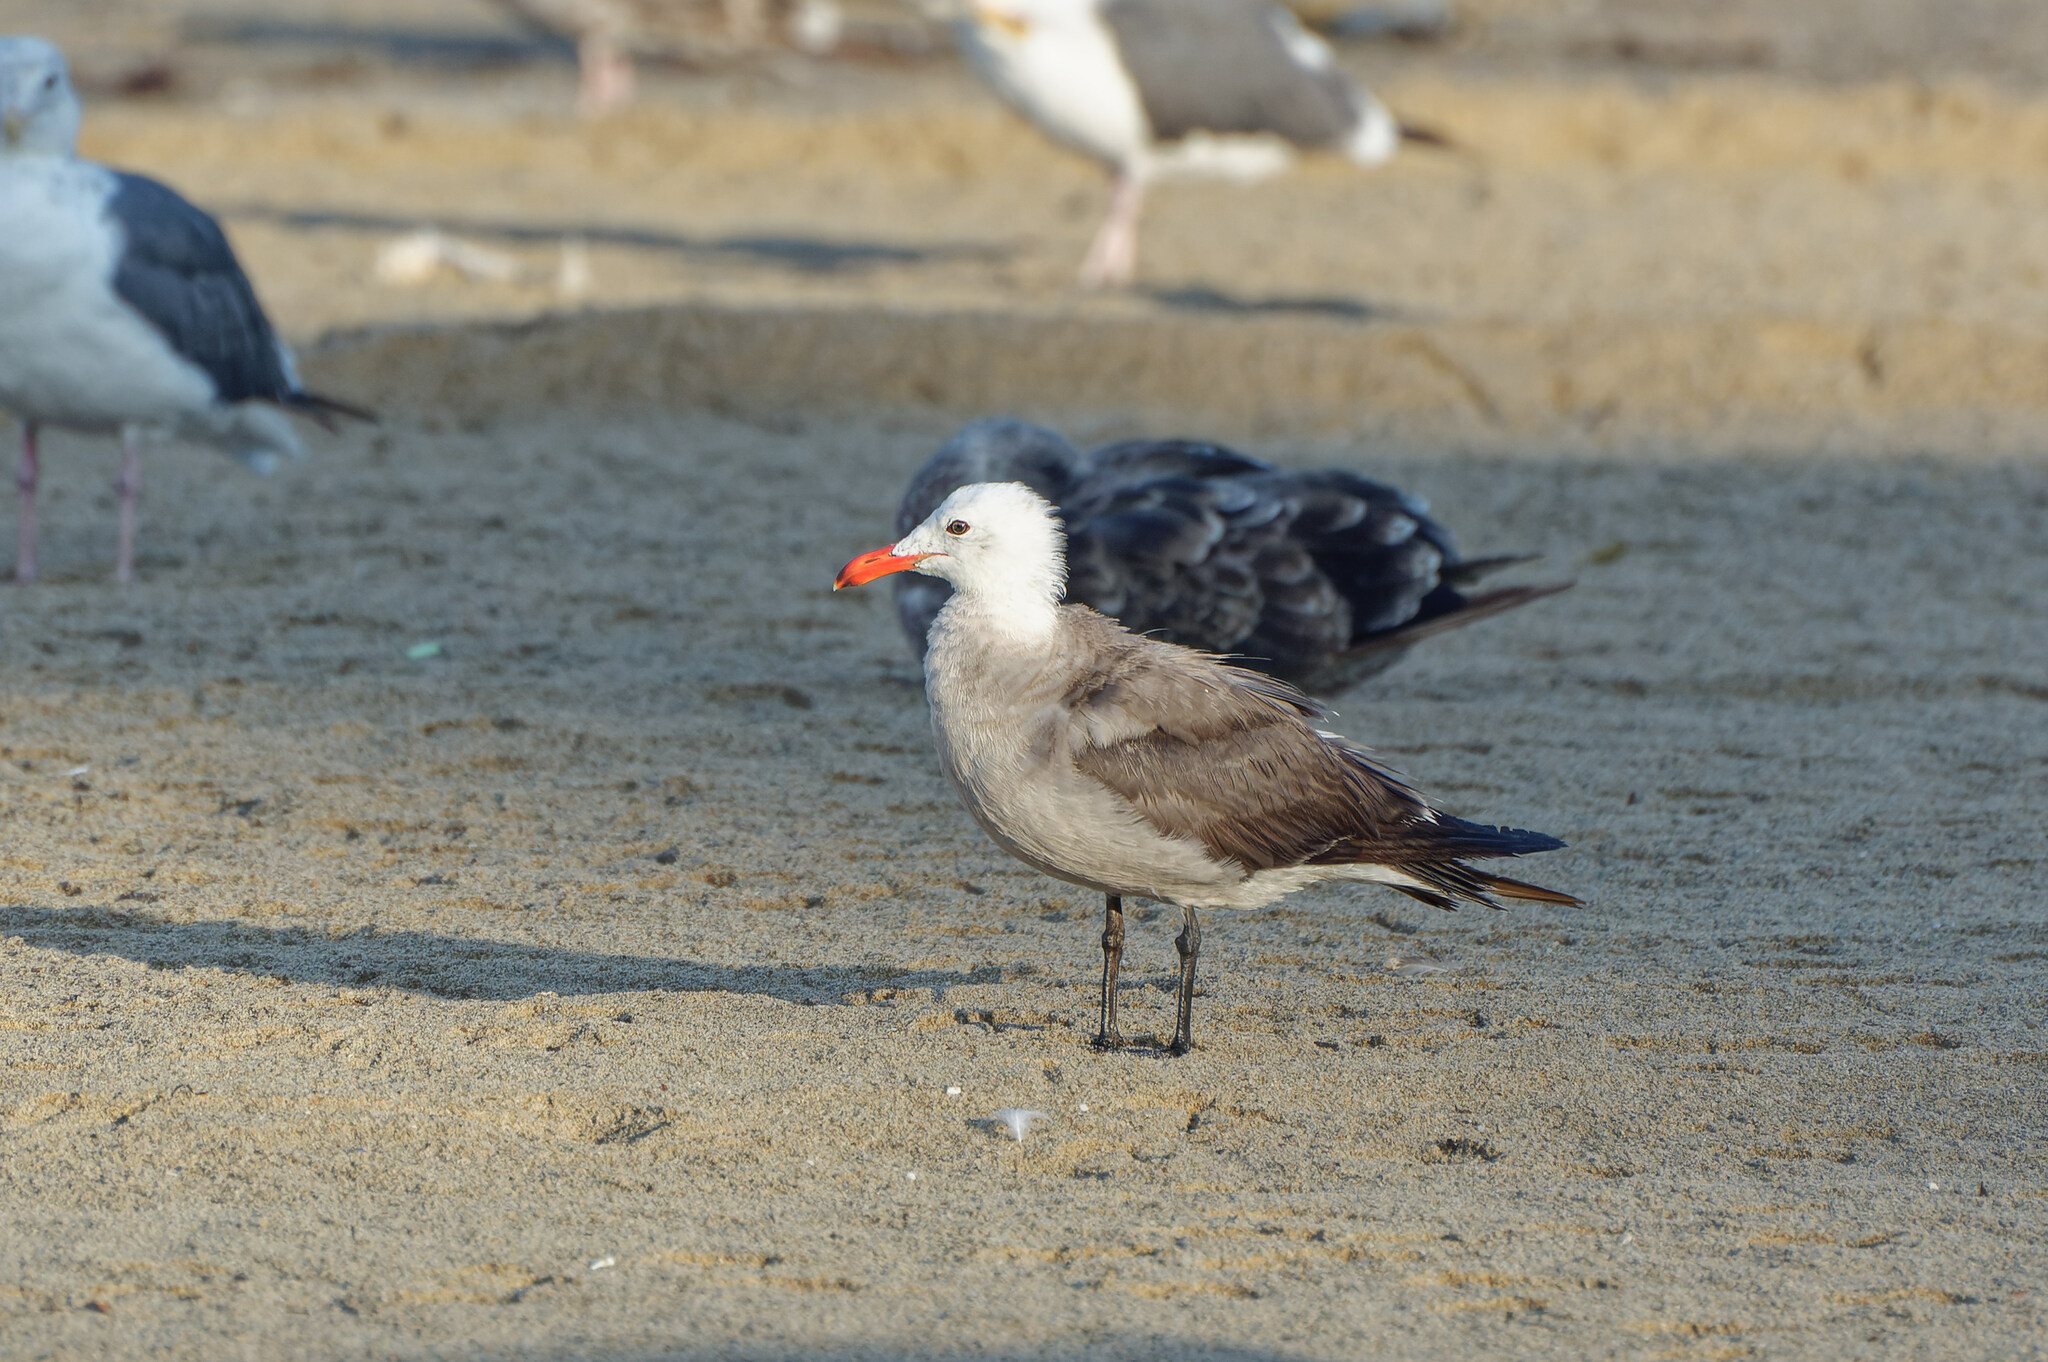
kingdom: Animalia
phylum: Chordata
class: Aves
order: Charadriiformes
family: Laridae
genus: Larus
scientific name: Larus heermanni
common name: Heermann's gull
